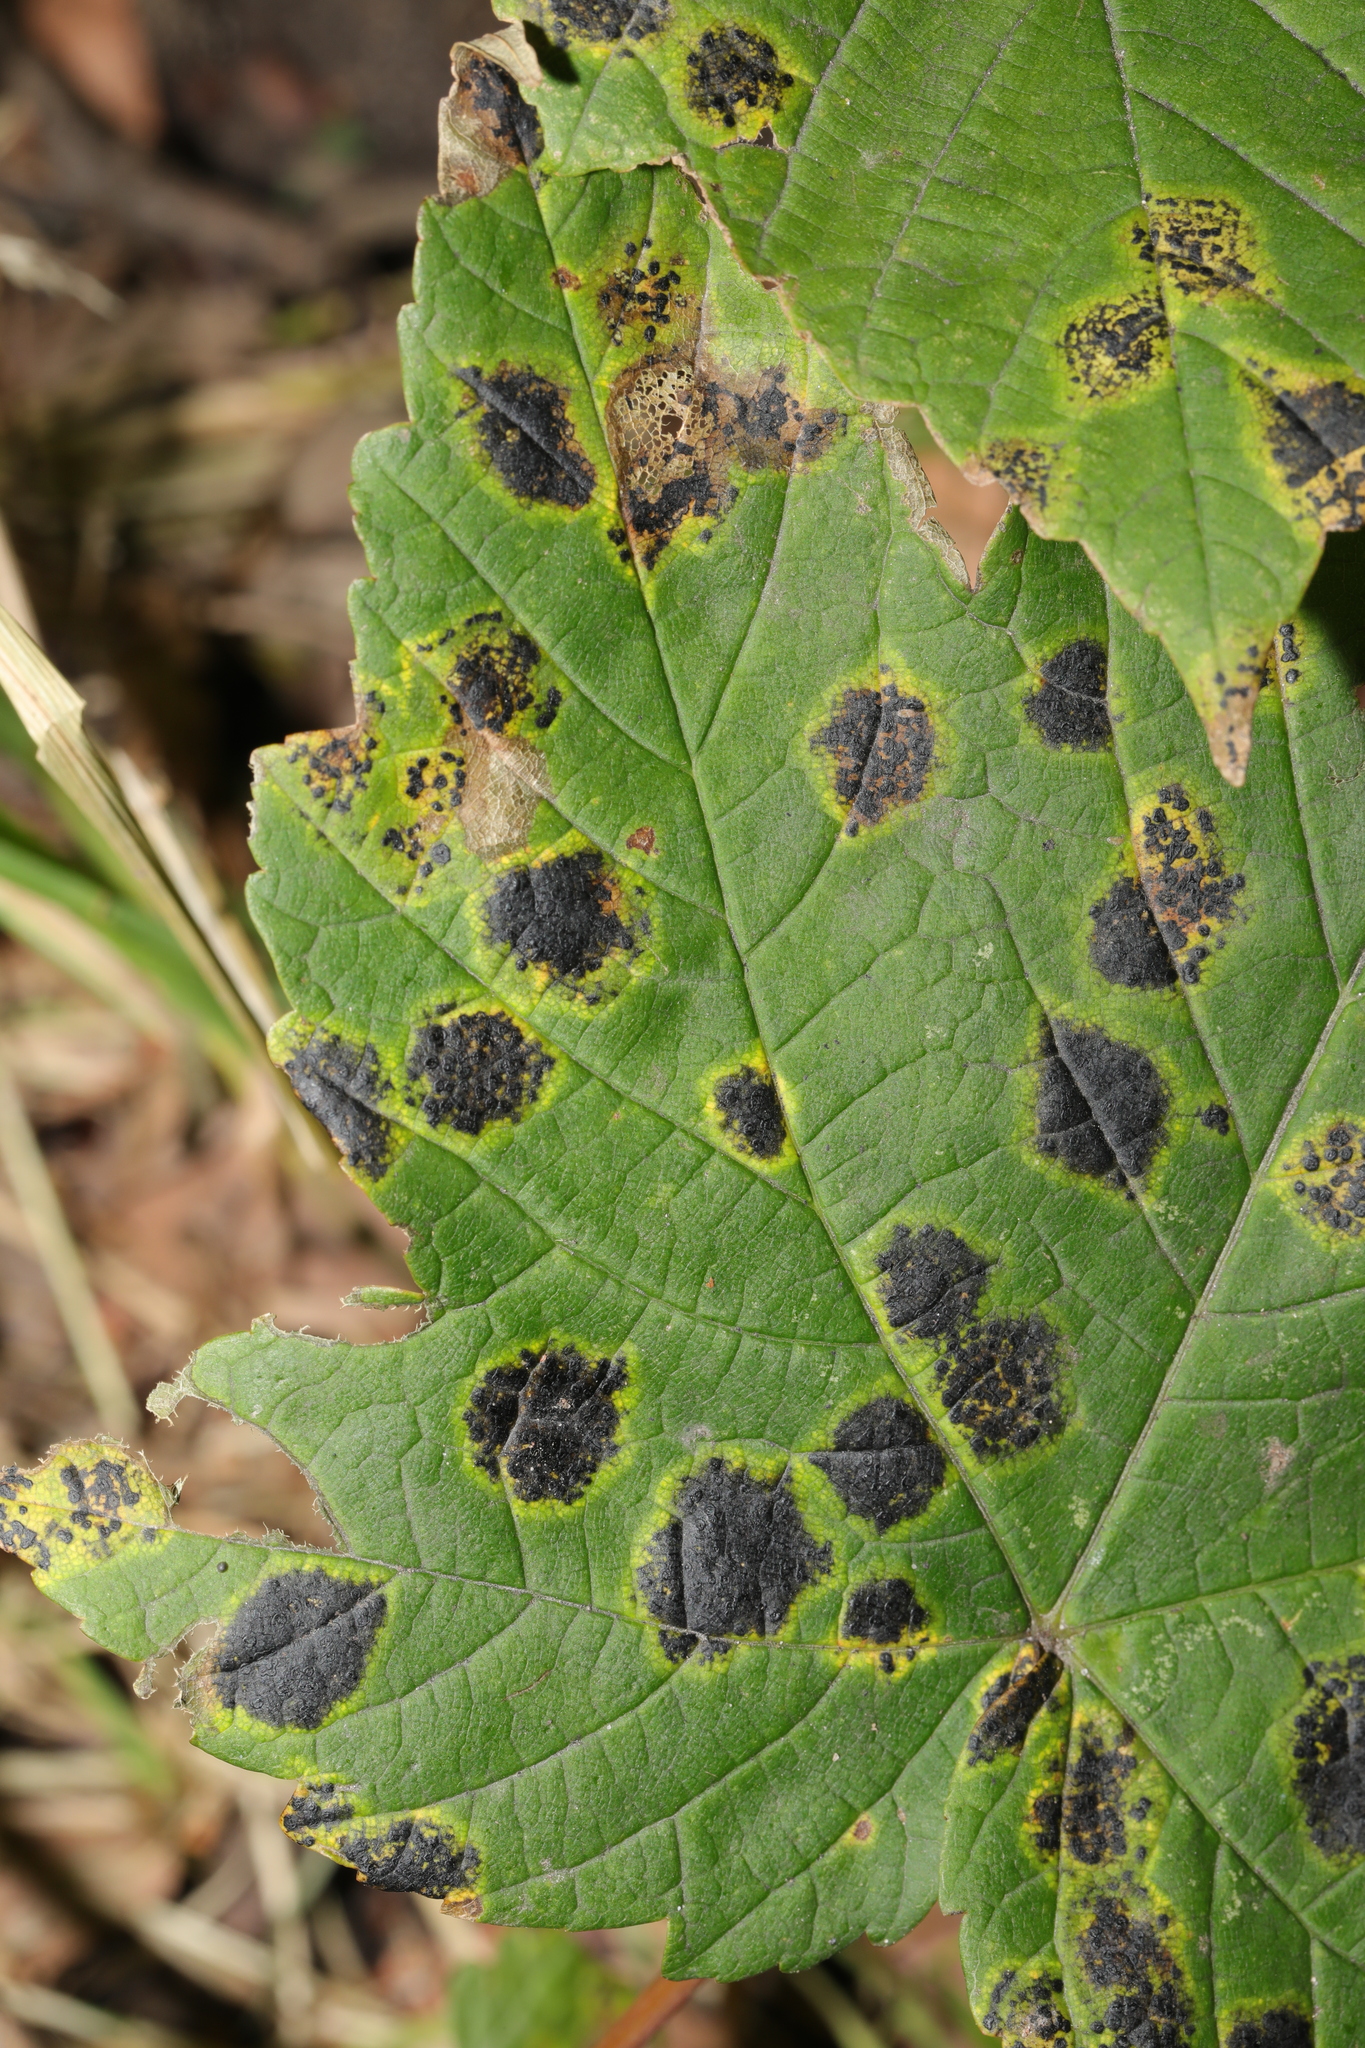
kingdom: Fungi
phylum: Ascomycota
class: Leotiomycetes
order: Rhytismatales
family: Rhytismataceae
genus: Rhytisma
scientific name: Rhytisma acerinum
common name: European tar spot
